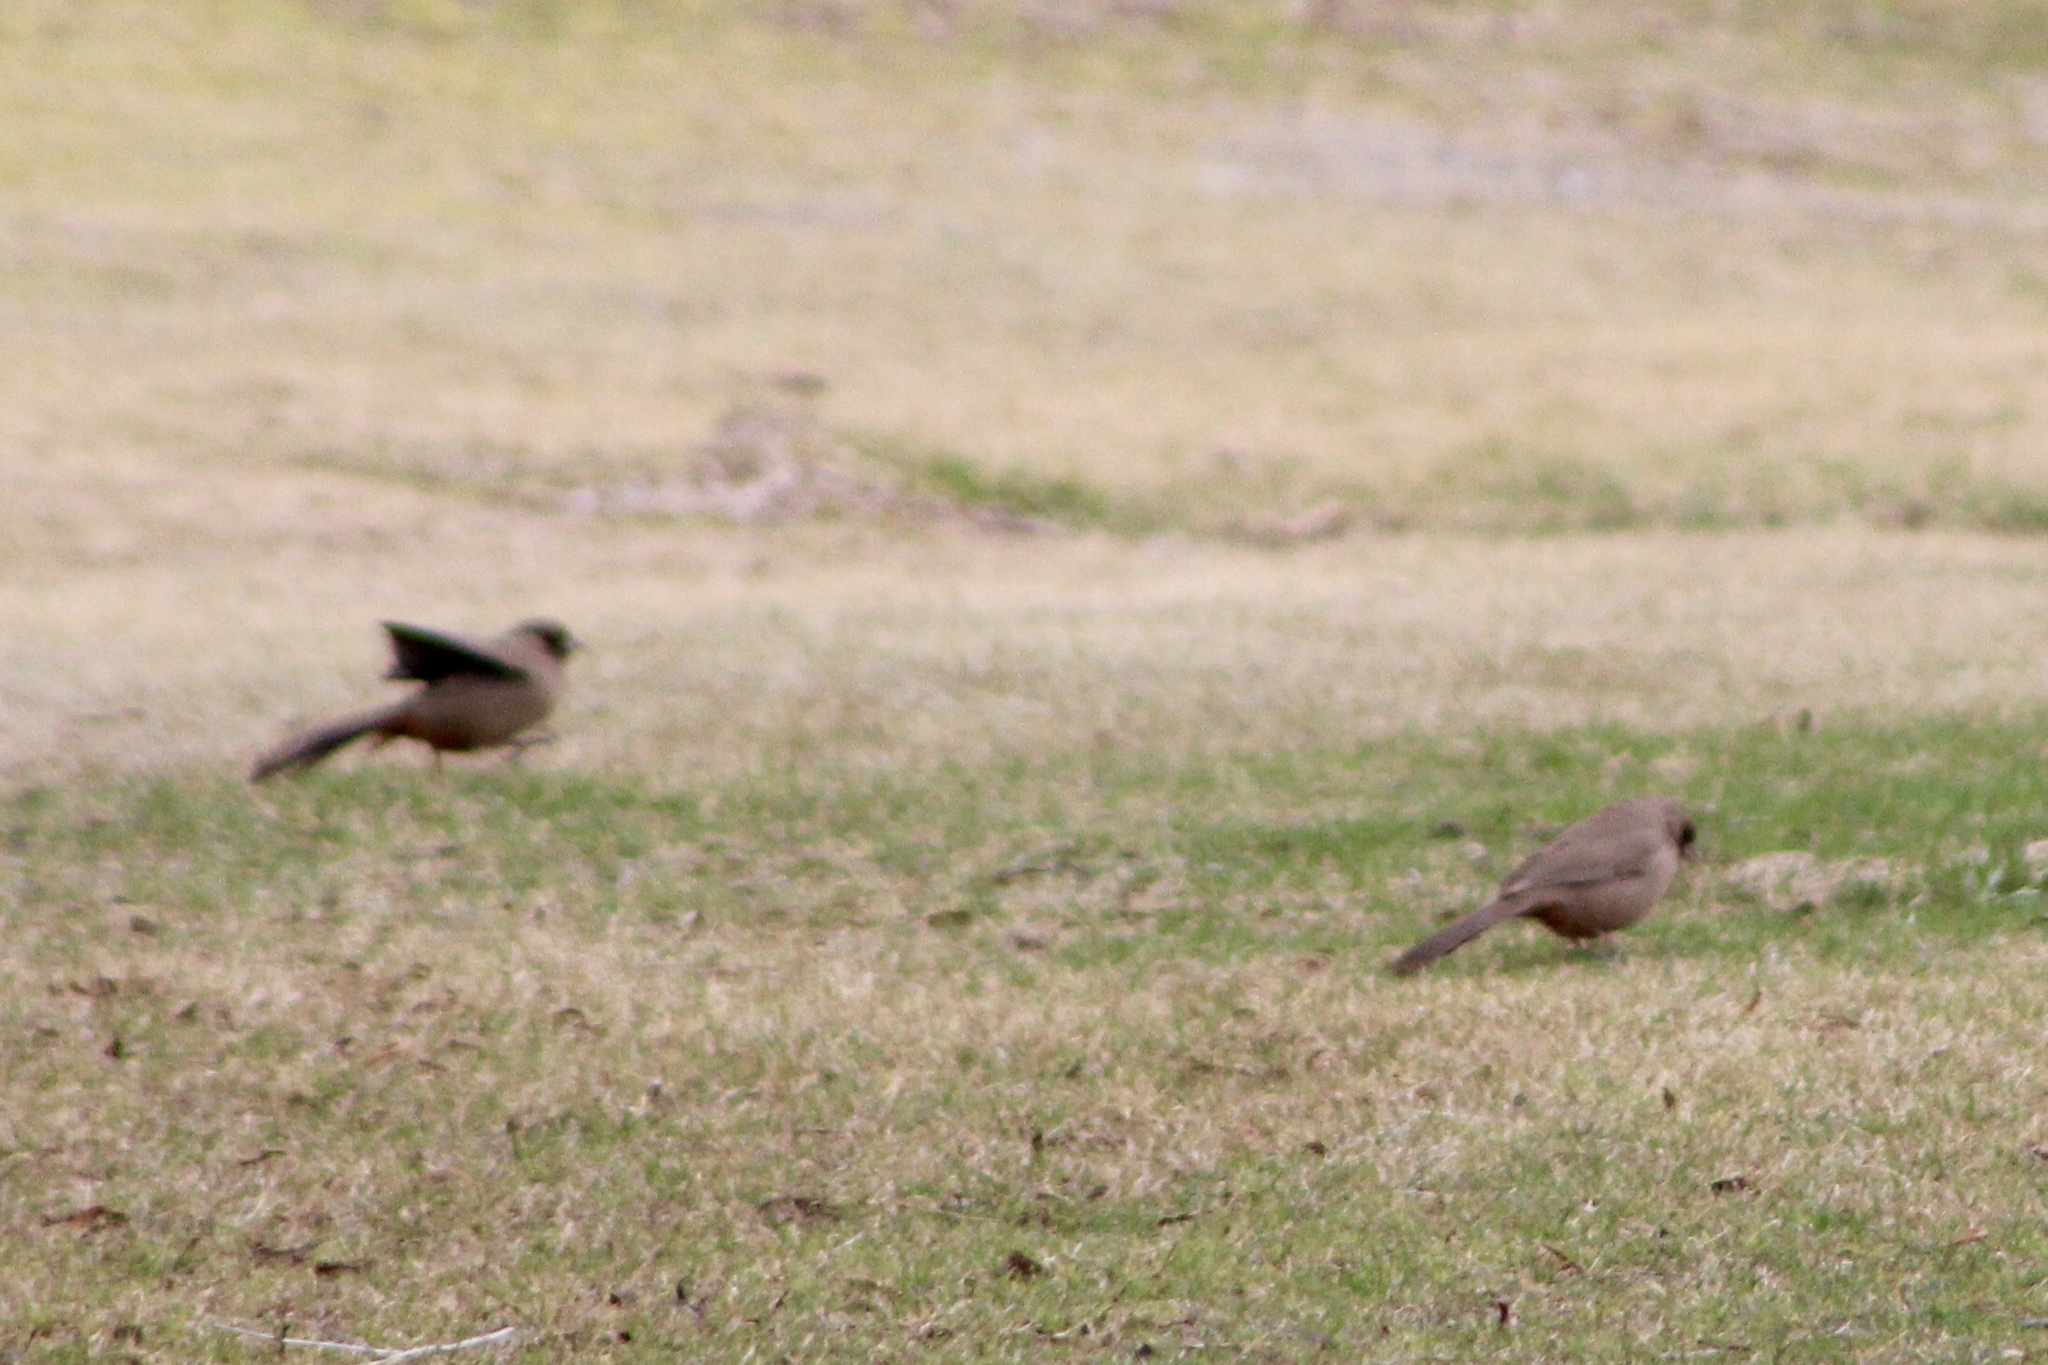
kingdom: Animalia
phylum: Chordata
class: Aves
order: Passeriformes
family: Passerellidae
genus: Melozone
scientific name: Melozone aberti
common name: Abert's towhee
